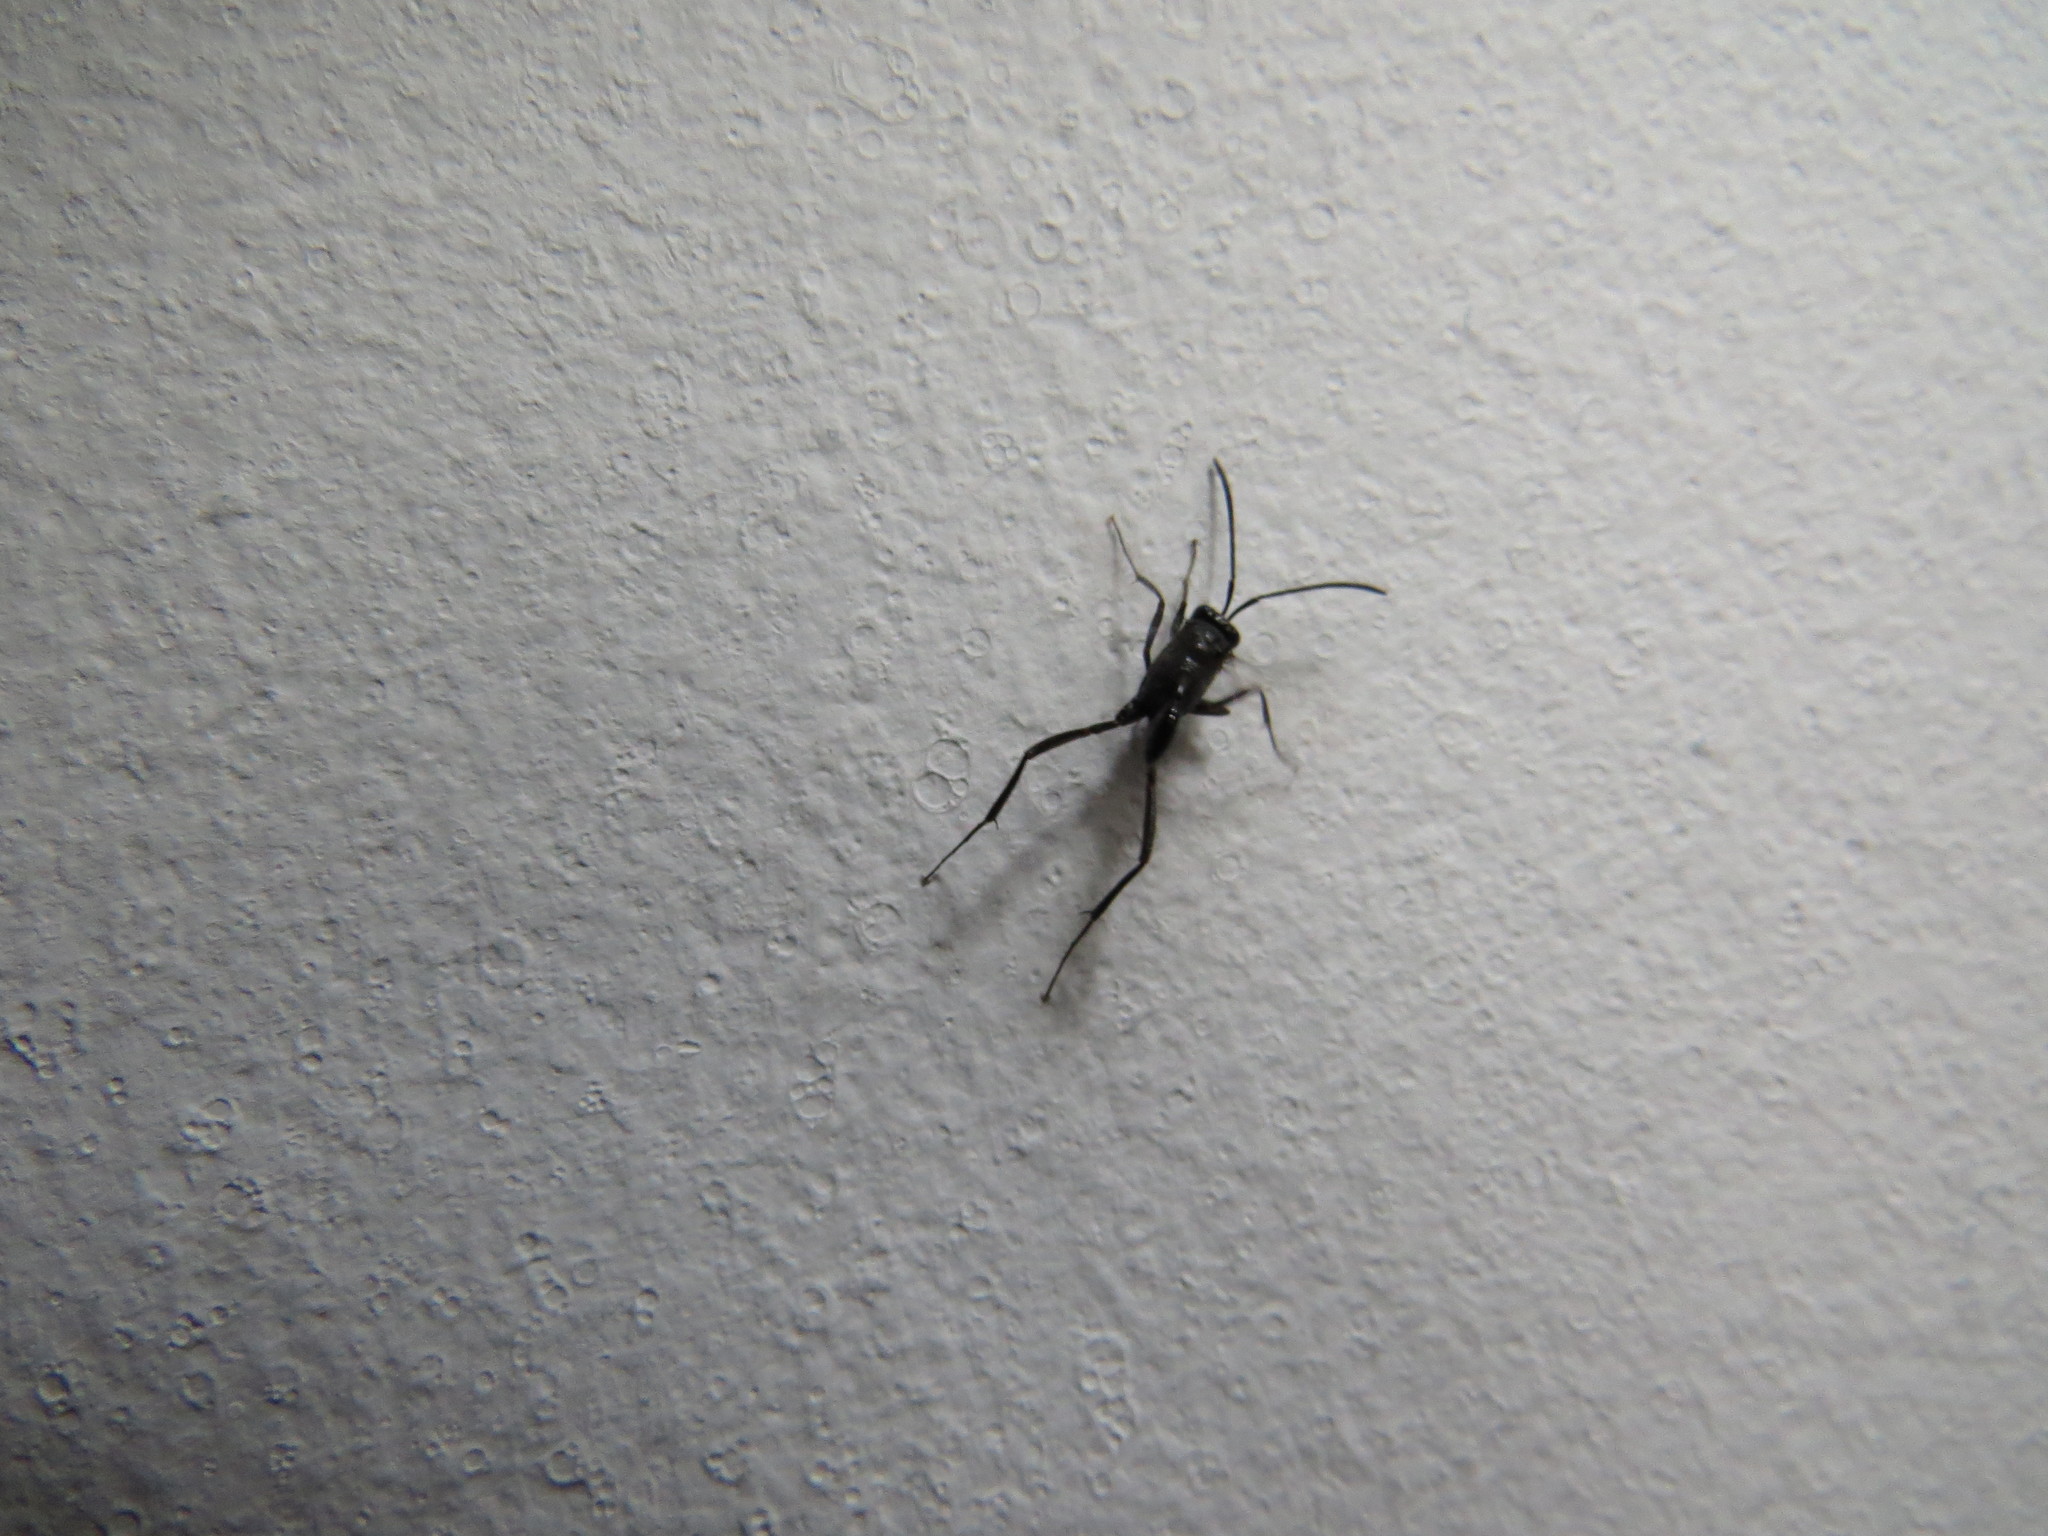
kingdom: Animalia
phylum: Arthropoda
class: Insecta
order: Hymenoptera
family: Evaniidae
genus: Evania
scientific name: Evania appendigaster
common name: Ensign wasp
